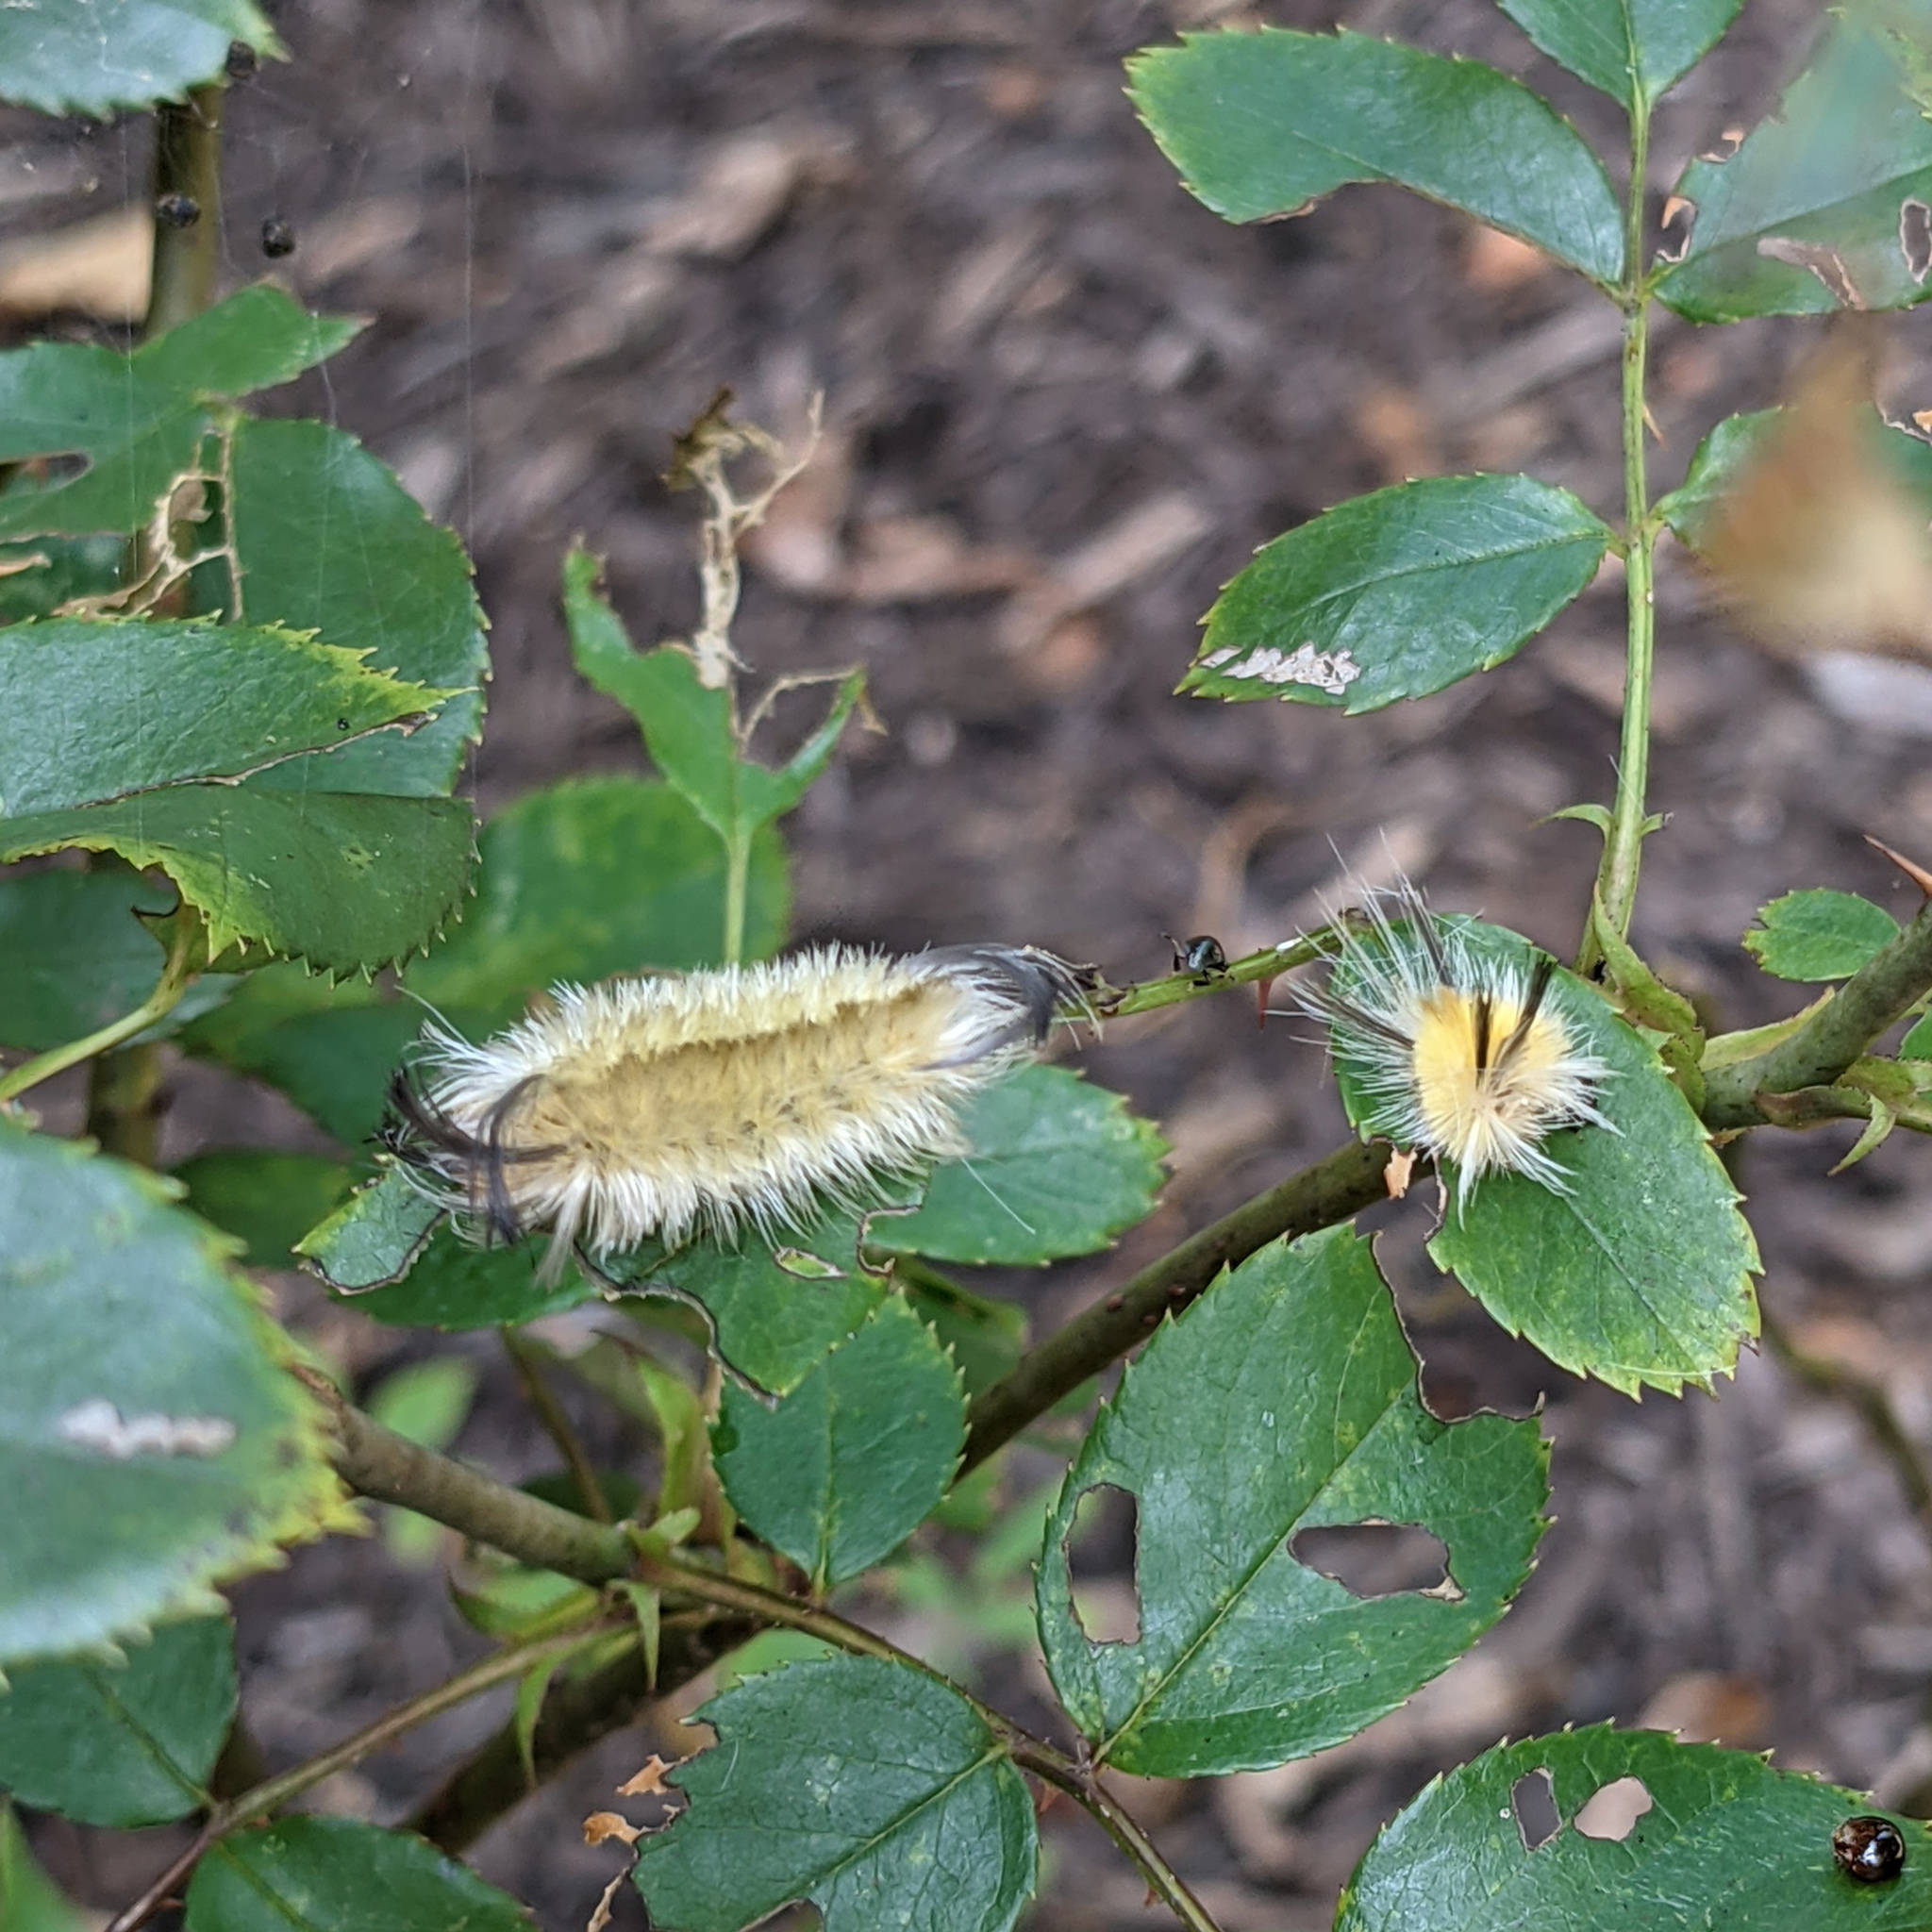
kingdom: Animalia
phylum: Arthropoda
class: Insecta
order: Lepidoptera
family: Erebidae
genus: Halysidota
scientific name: Halysidota tessellaris
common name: Banded tussock moth
